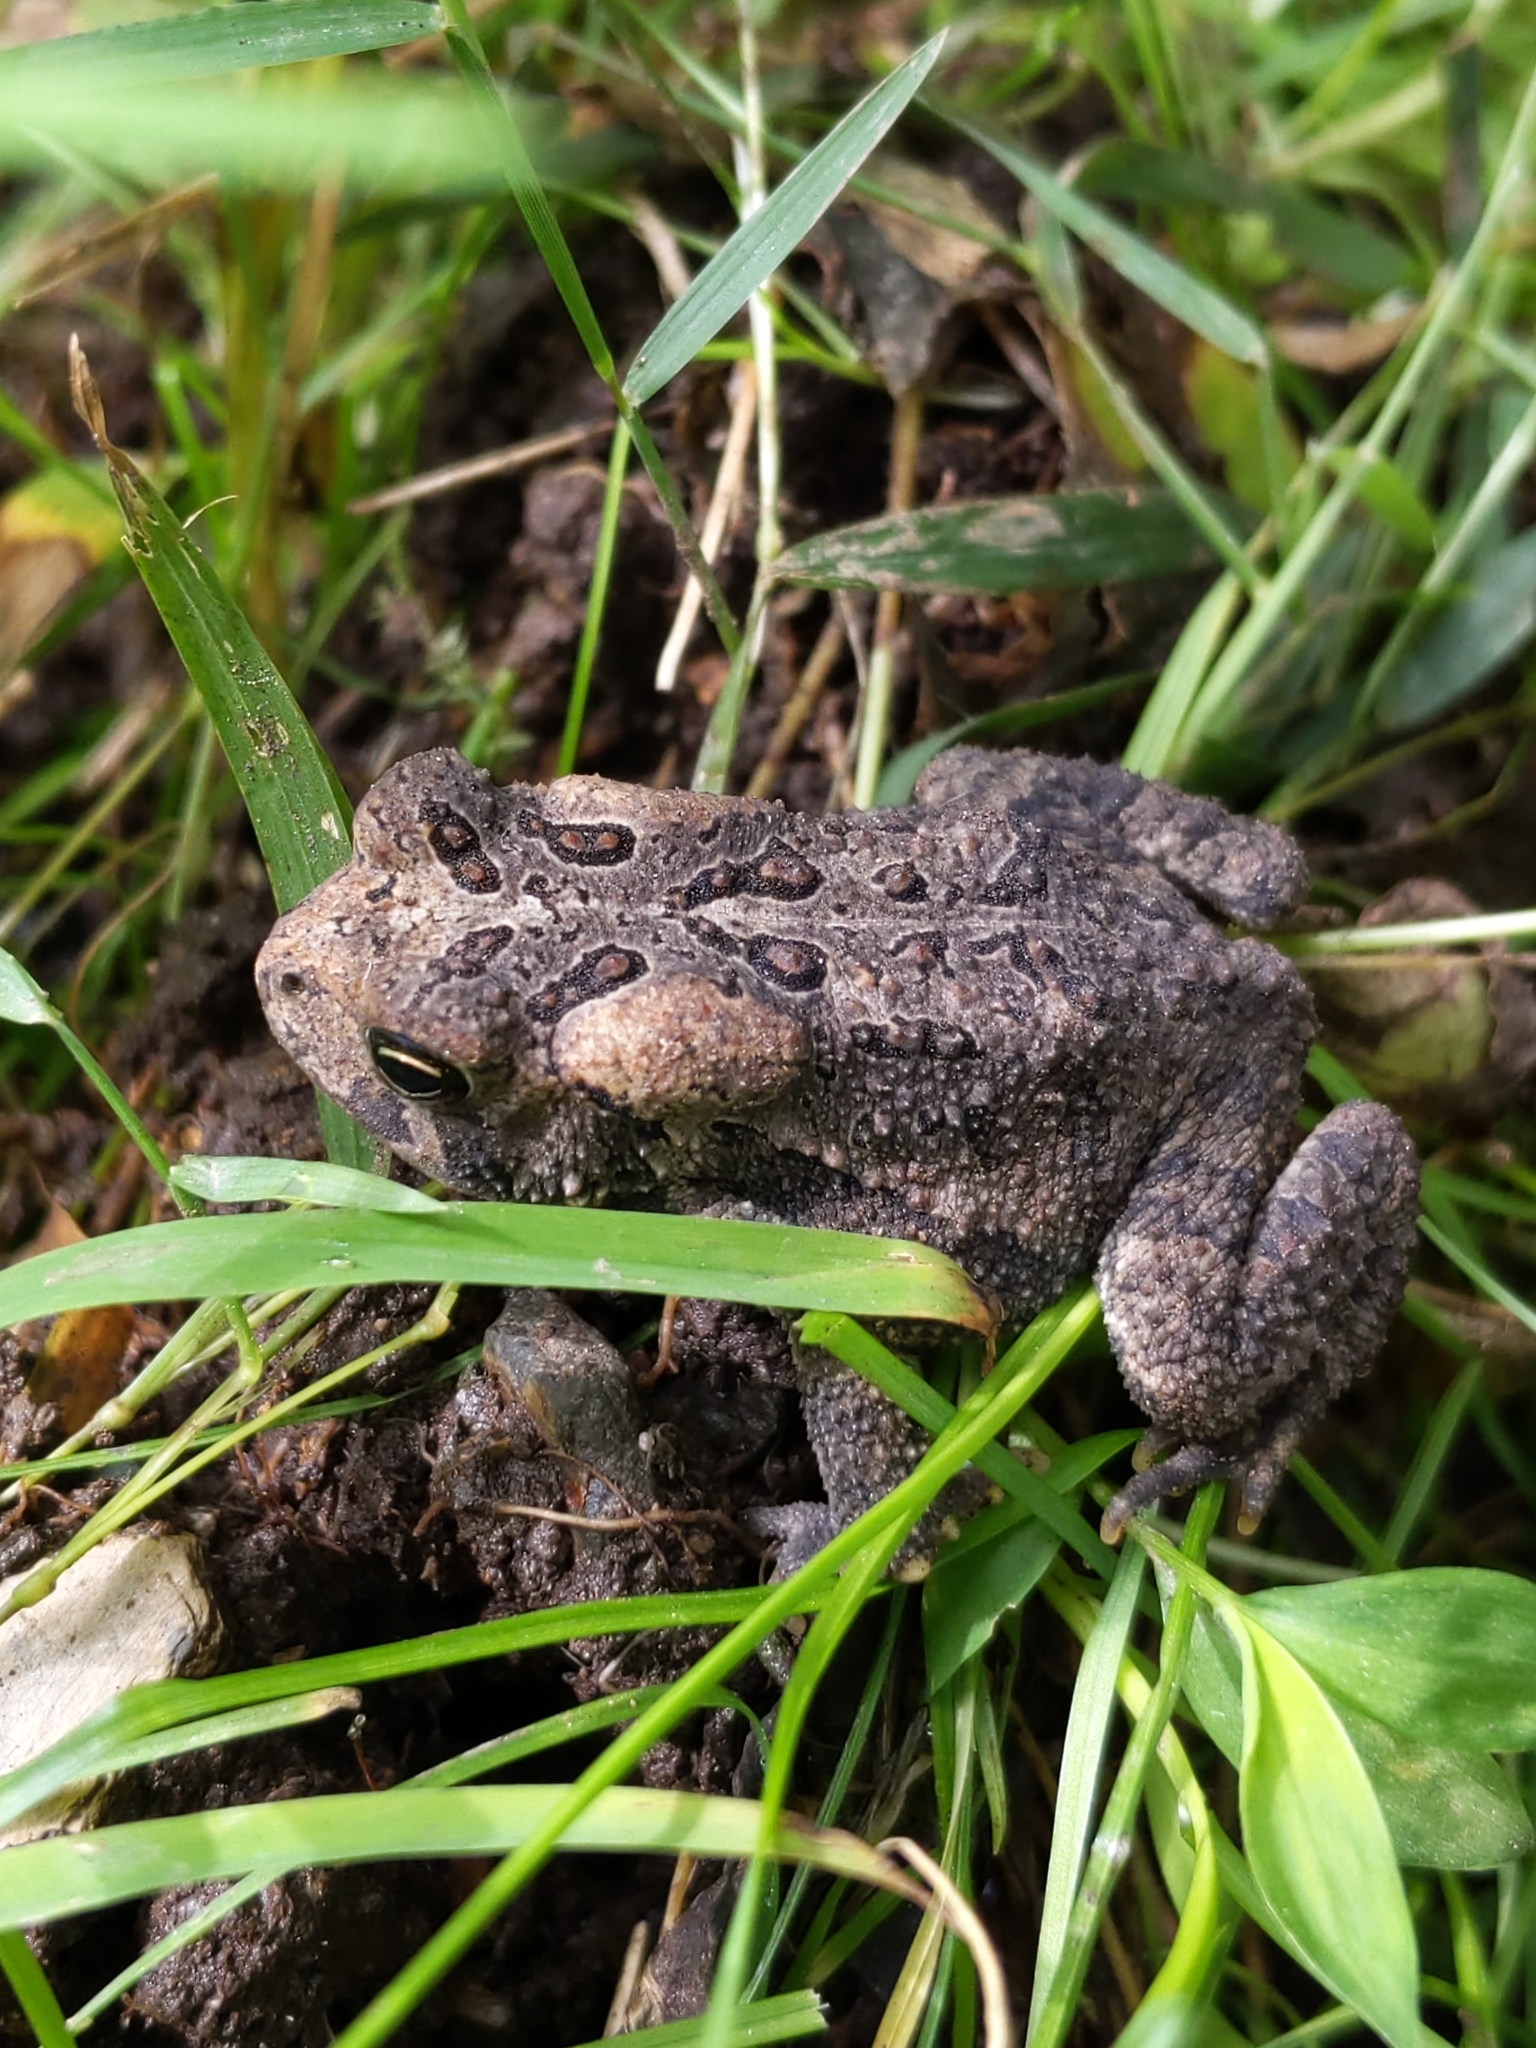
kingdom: Animalia
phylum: Chordata
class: Amphibia
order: Anura
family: Bufonidae
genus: Anaxyrus
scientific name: Anaxyrus americanus
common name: American toad
